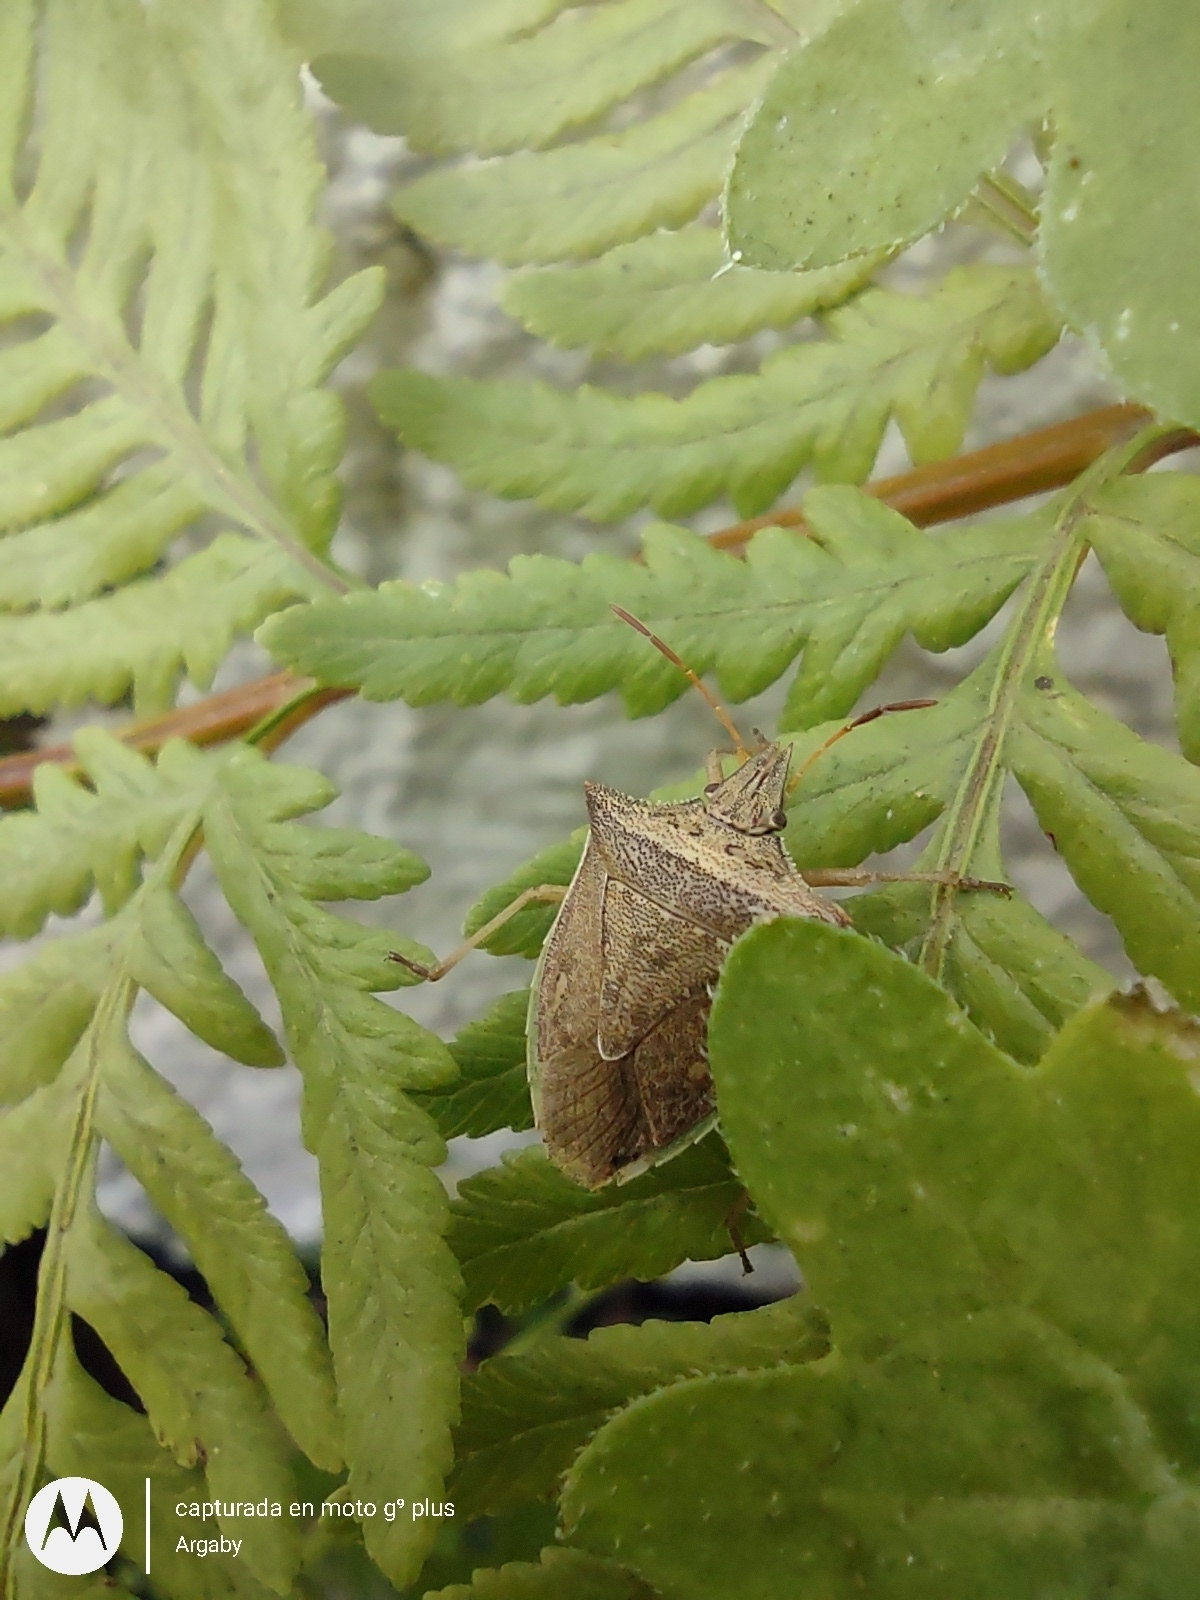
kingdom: Animalia
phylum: Arthropoda
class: Insecta
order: Hemiptera
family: Pentatomidae
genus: Diceraeus
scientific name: Diceraeus furcatus
